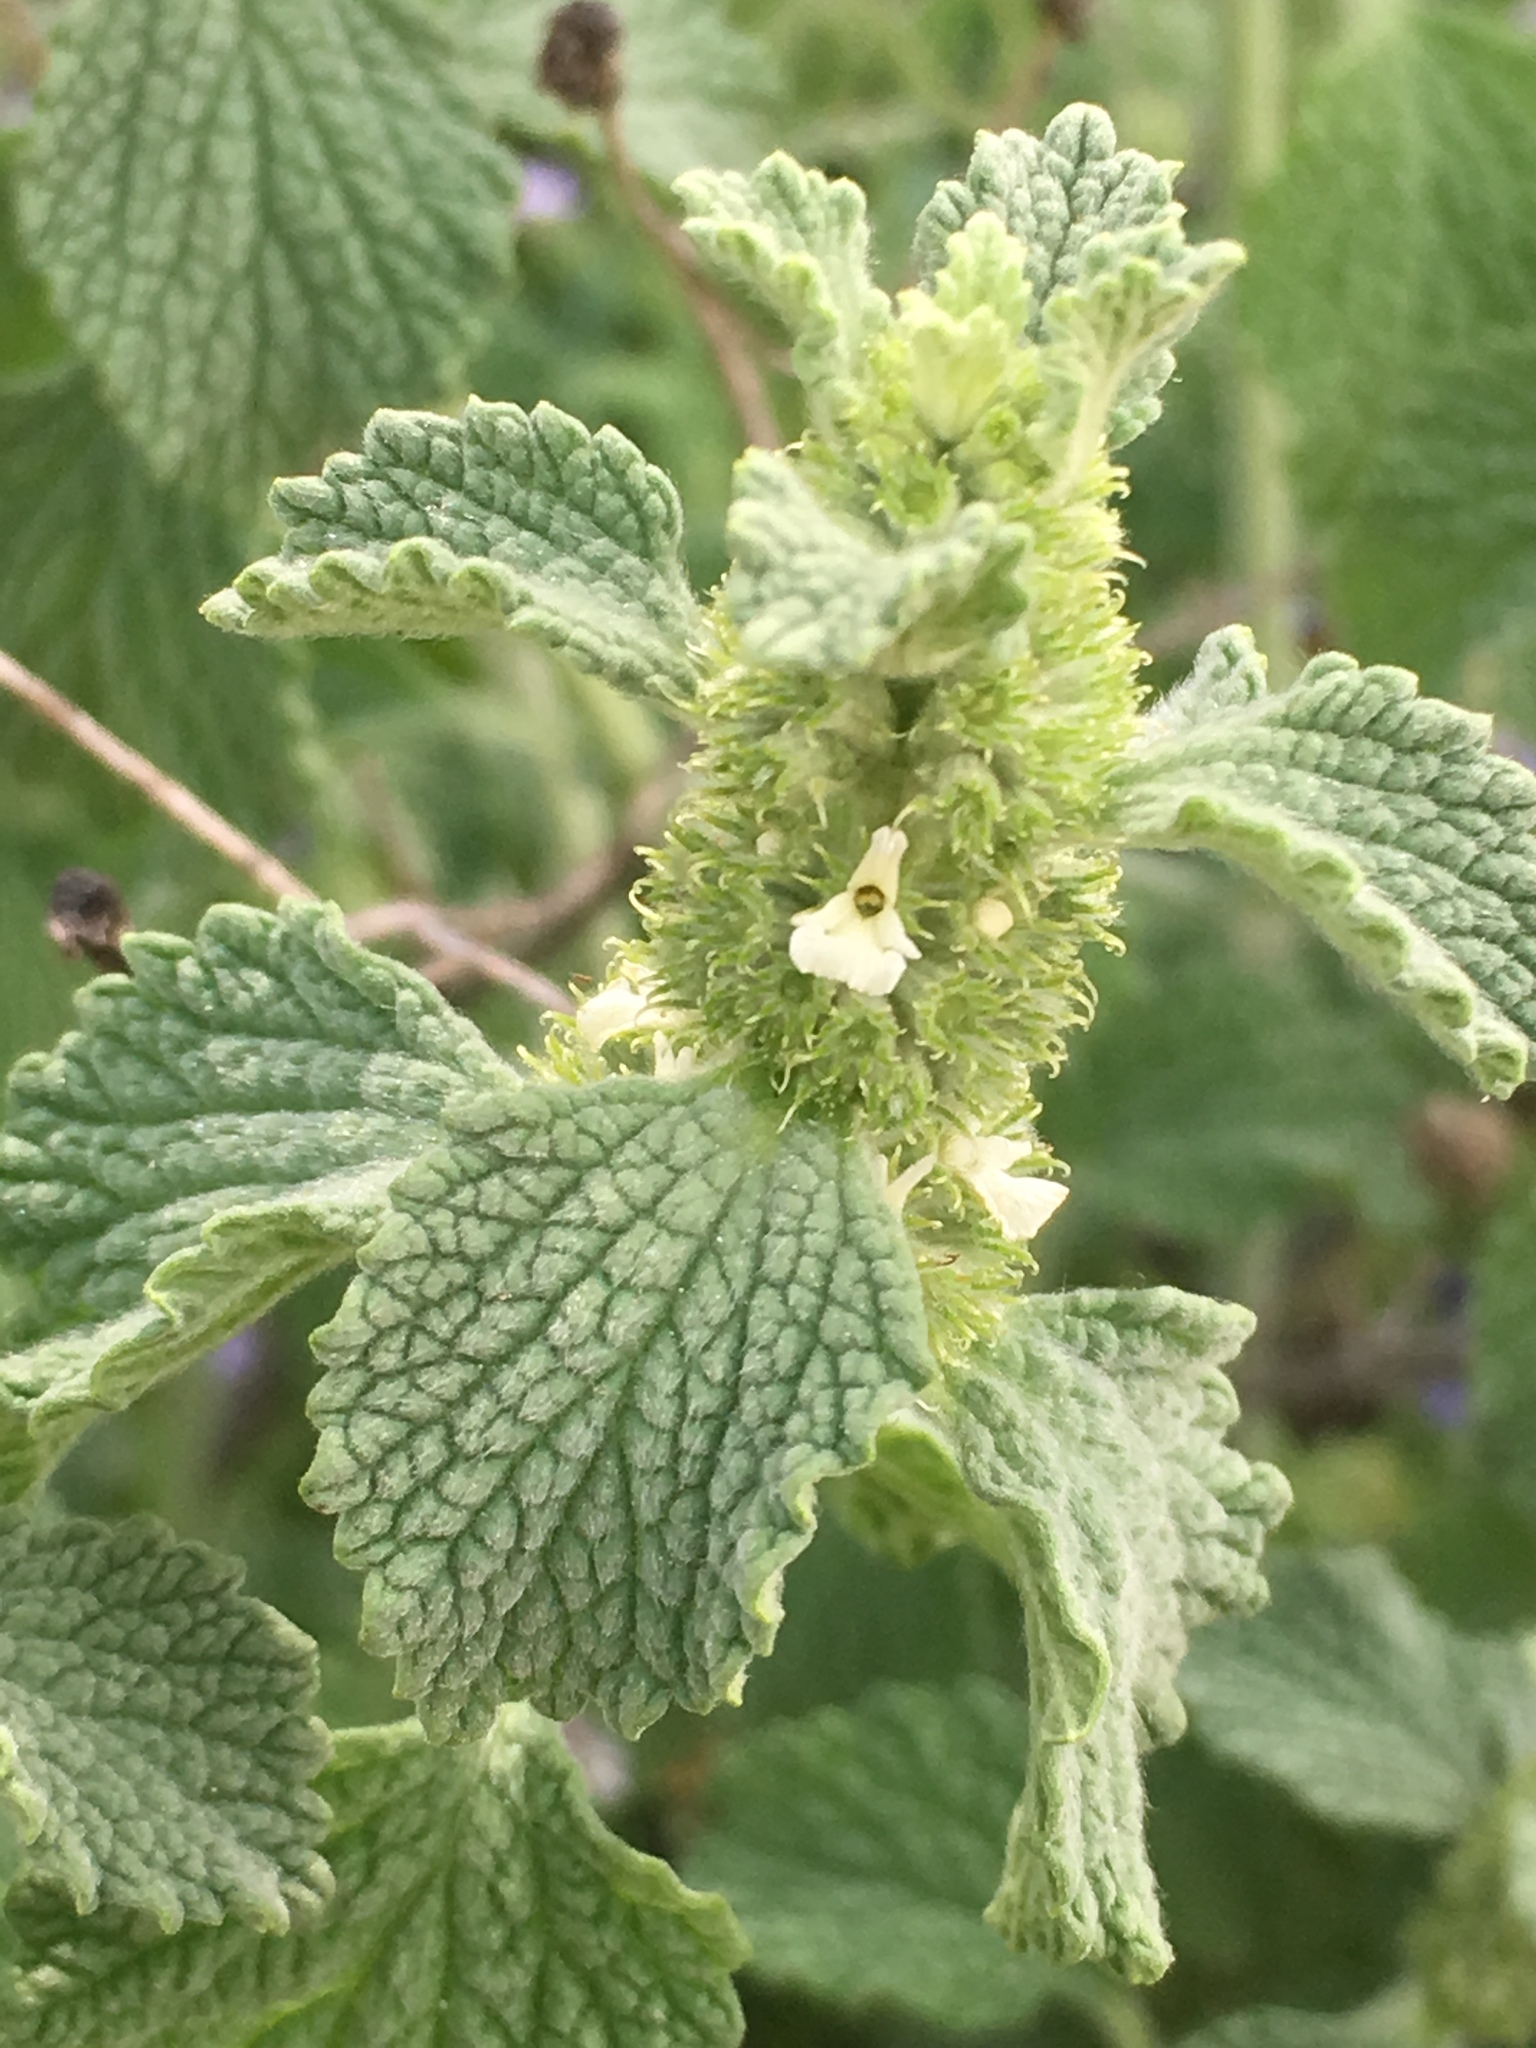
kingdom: Plantae
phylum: Tracheophyta
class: Magnoliopsida
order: Lamiales
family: Lamiaceae
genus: Marrubium
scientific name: Marrubium vulgare
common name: Horehound
